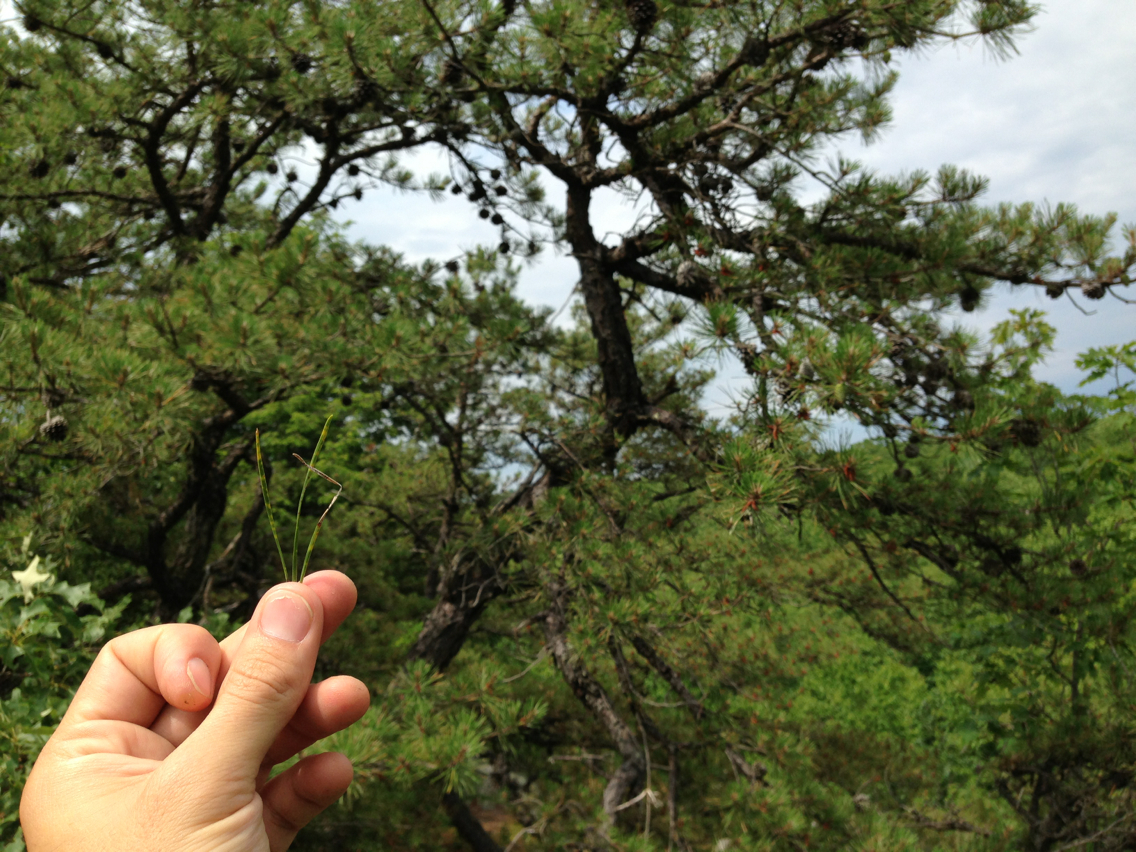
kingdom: Plantae
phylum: Tracheophyta
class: Pinopsida
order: Pinales
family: Pinaceae
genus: Pinus
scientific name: Pinus rigida
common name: Pitch pine
